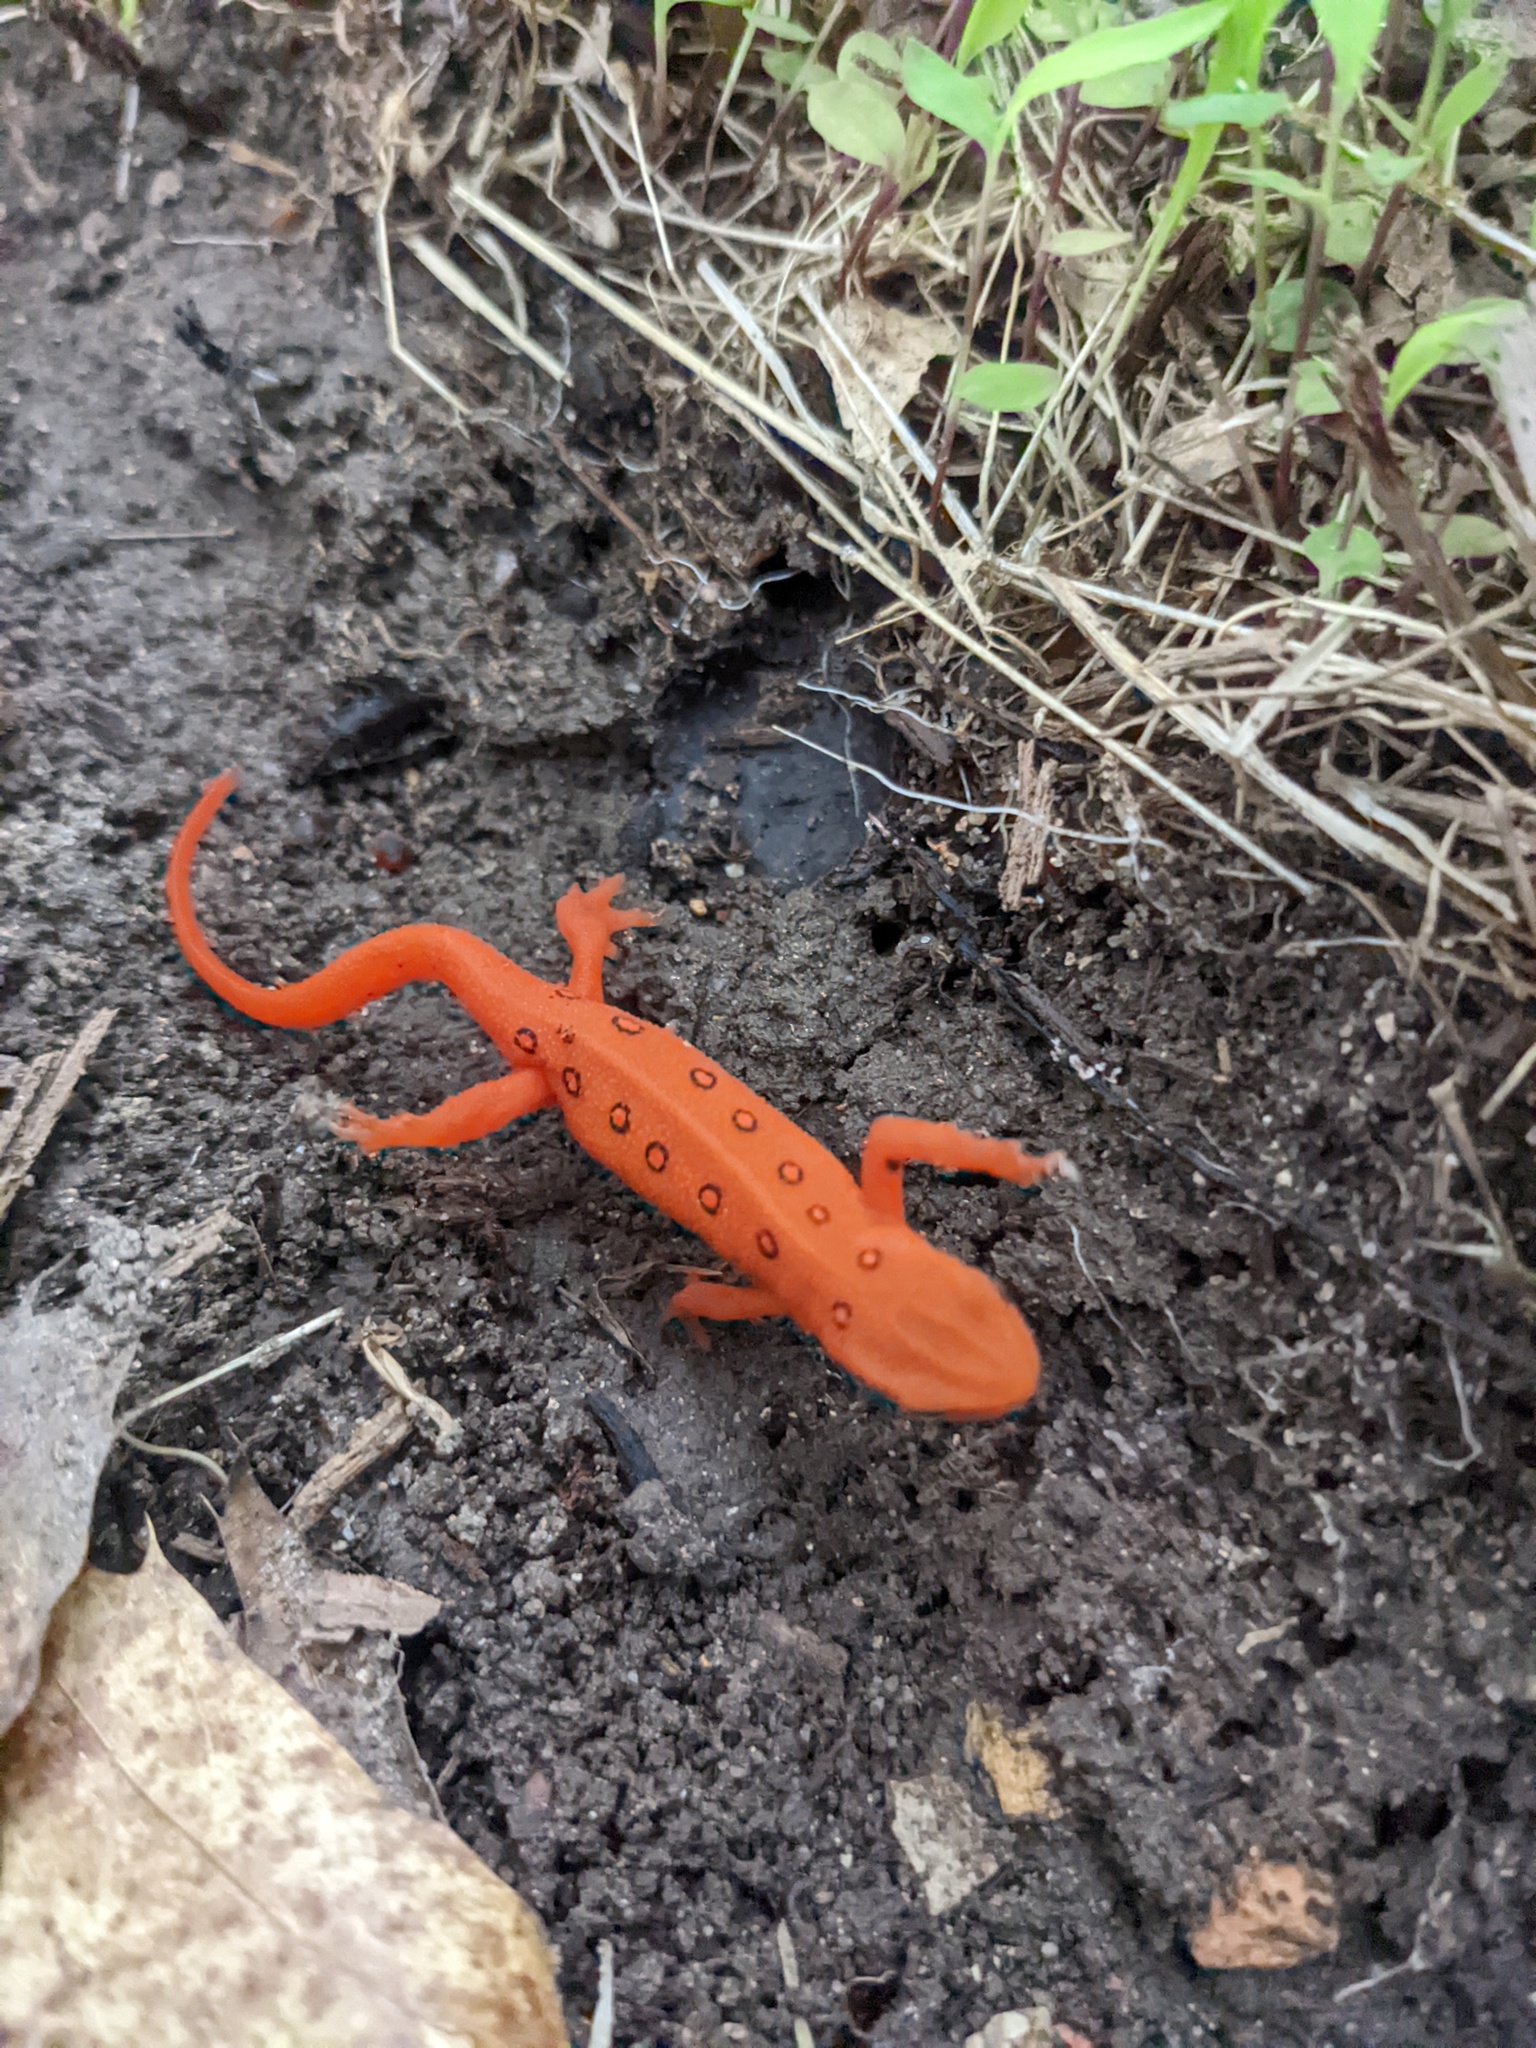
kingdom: Animalia
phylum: Chordata
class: Amphibia
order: Caudata
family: Salamandridae
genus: Notophthalmus
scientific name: Notophthalmus viridescens
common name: Eastern newt
